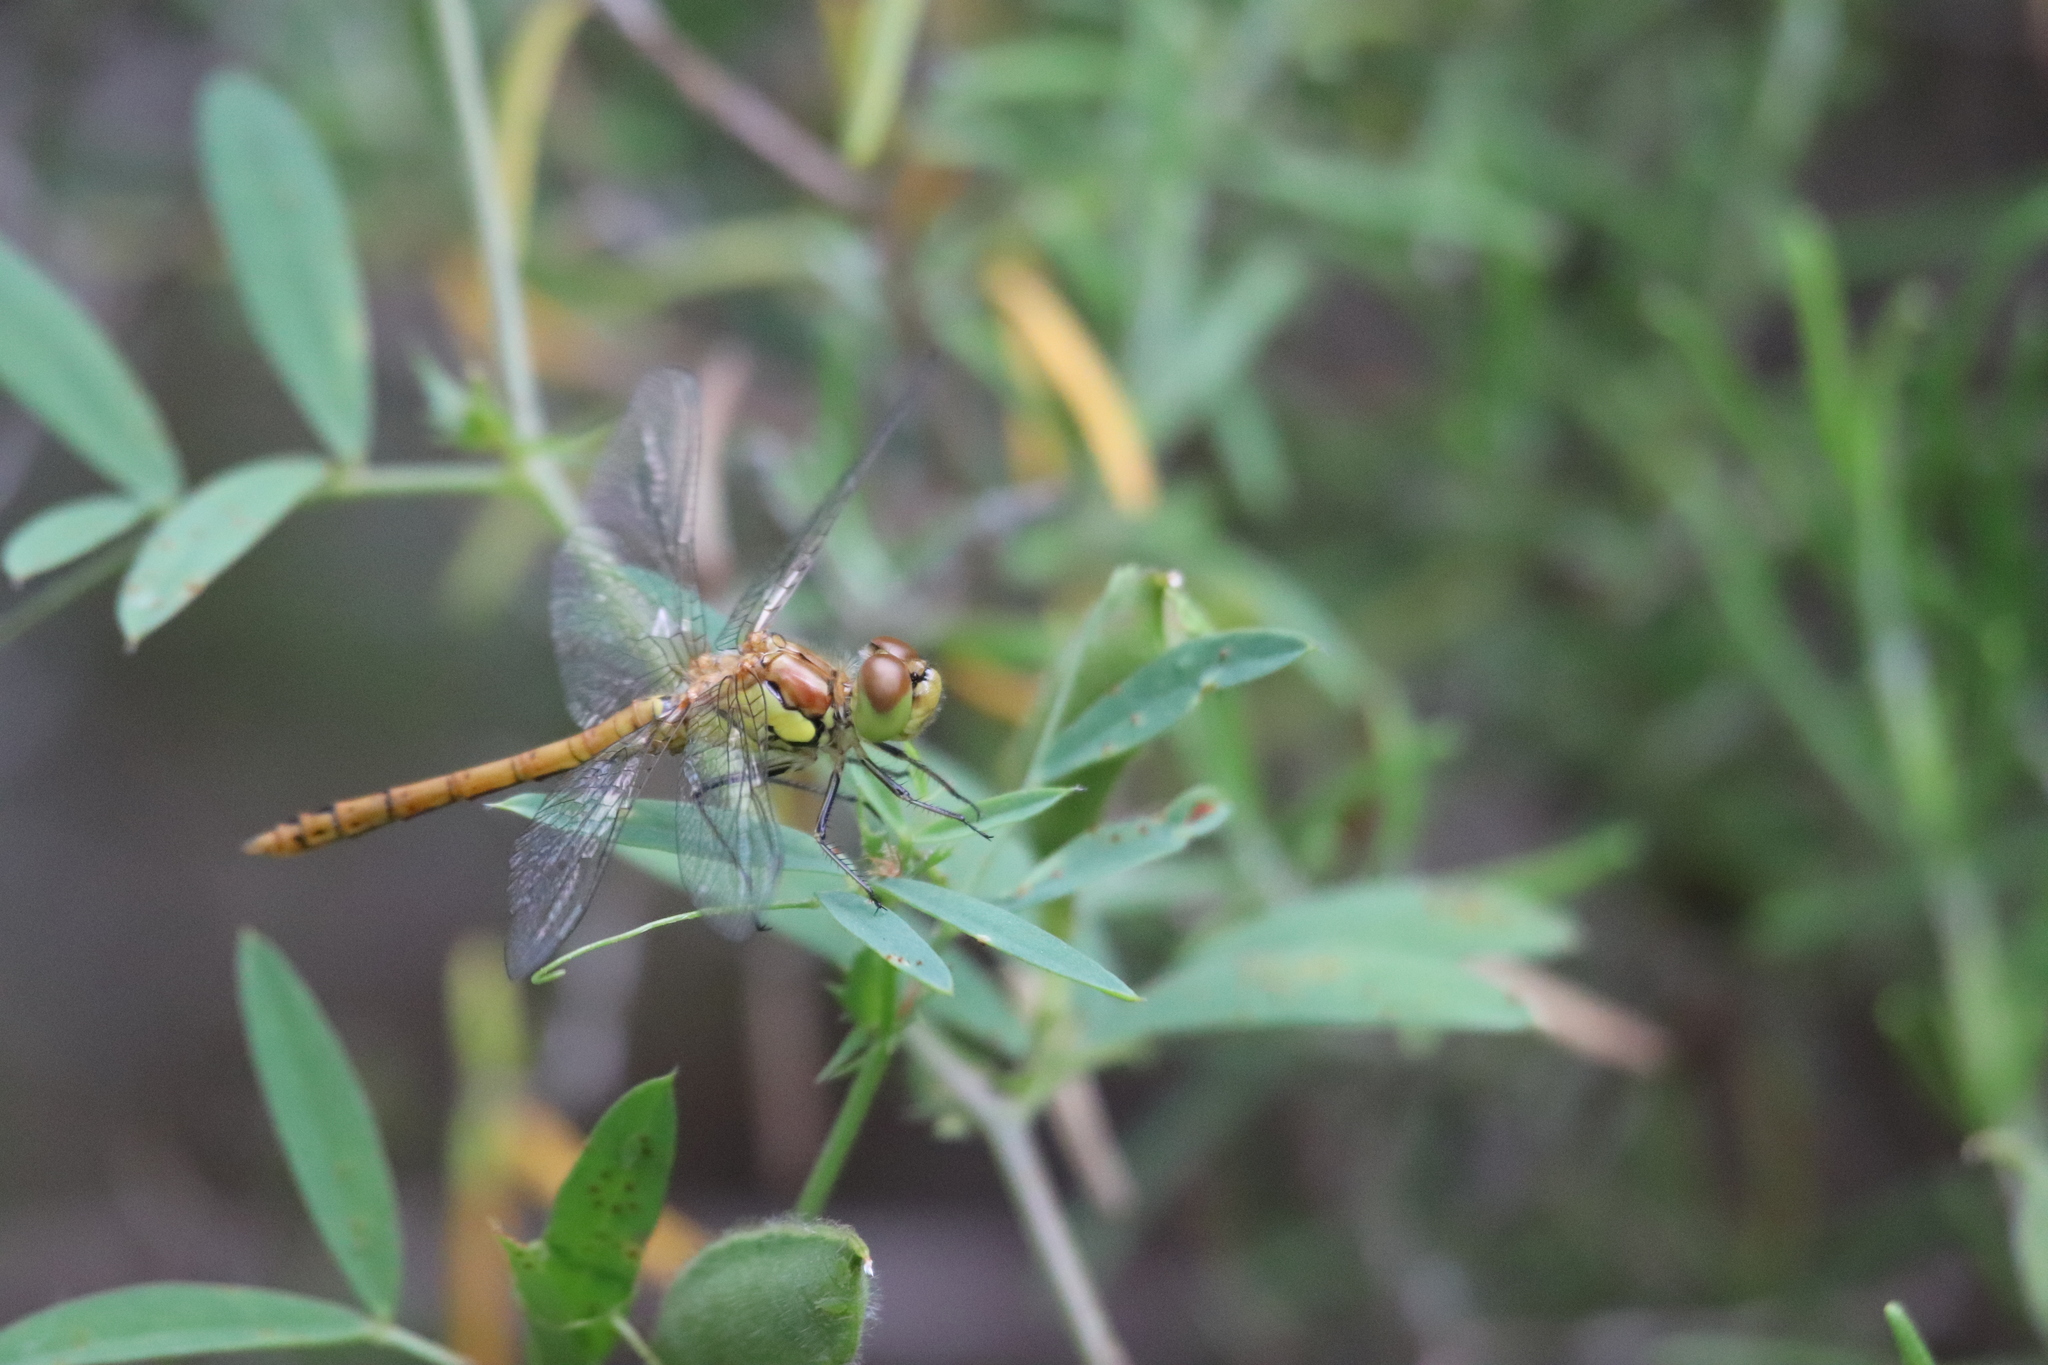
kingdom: Animalia
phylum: Arthropoda
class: Insecta
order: Odonata
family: Libellulidae
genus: Sympetrum
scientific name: Sympetrum striolatum
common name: Common darter
